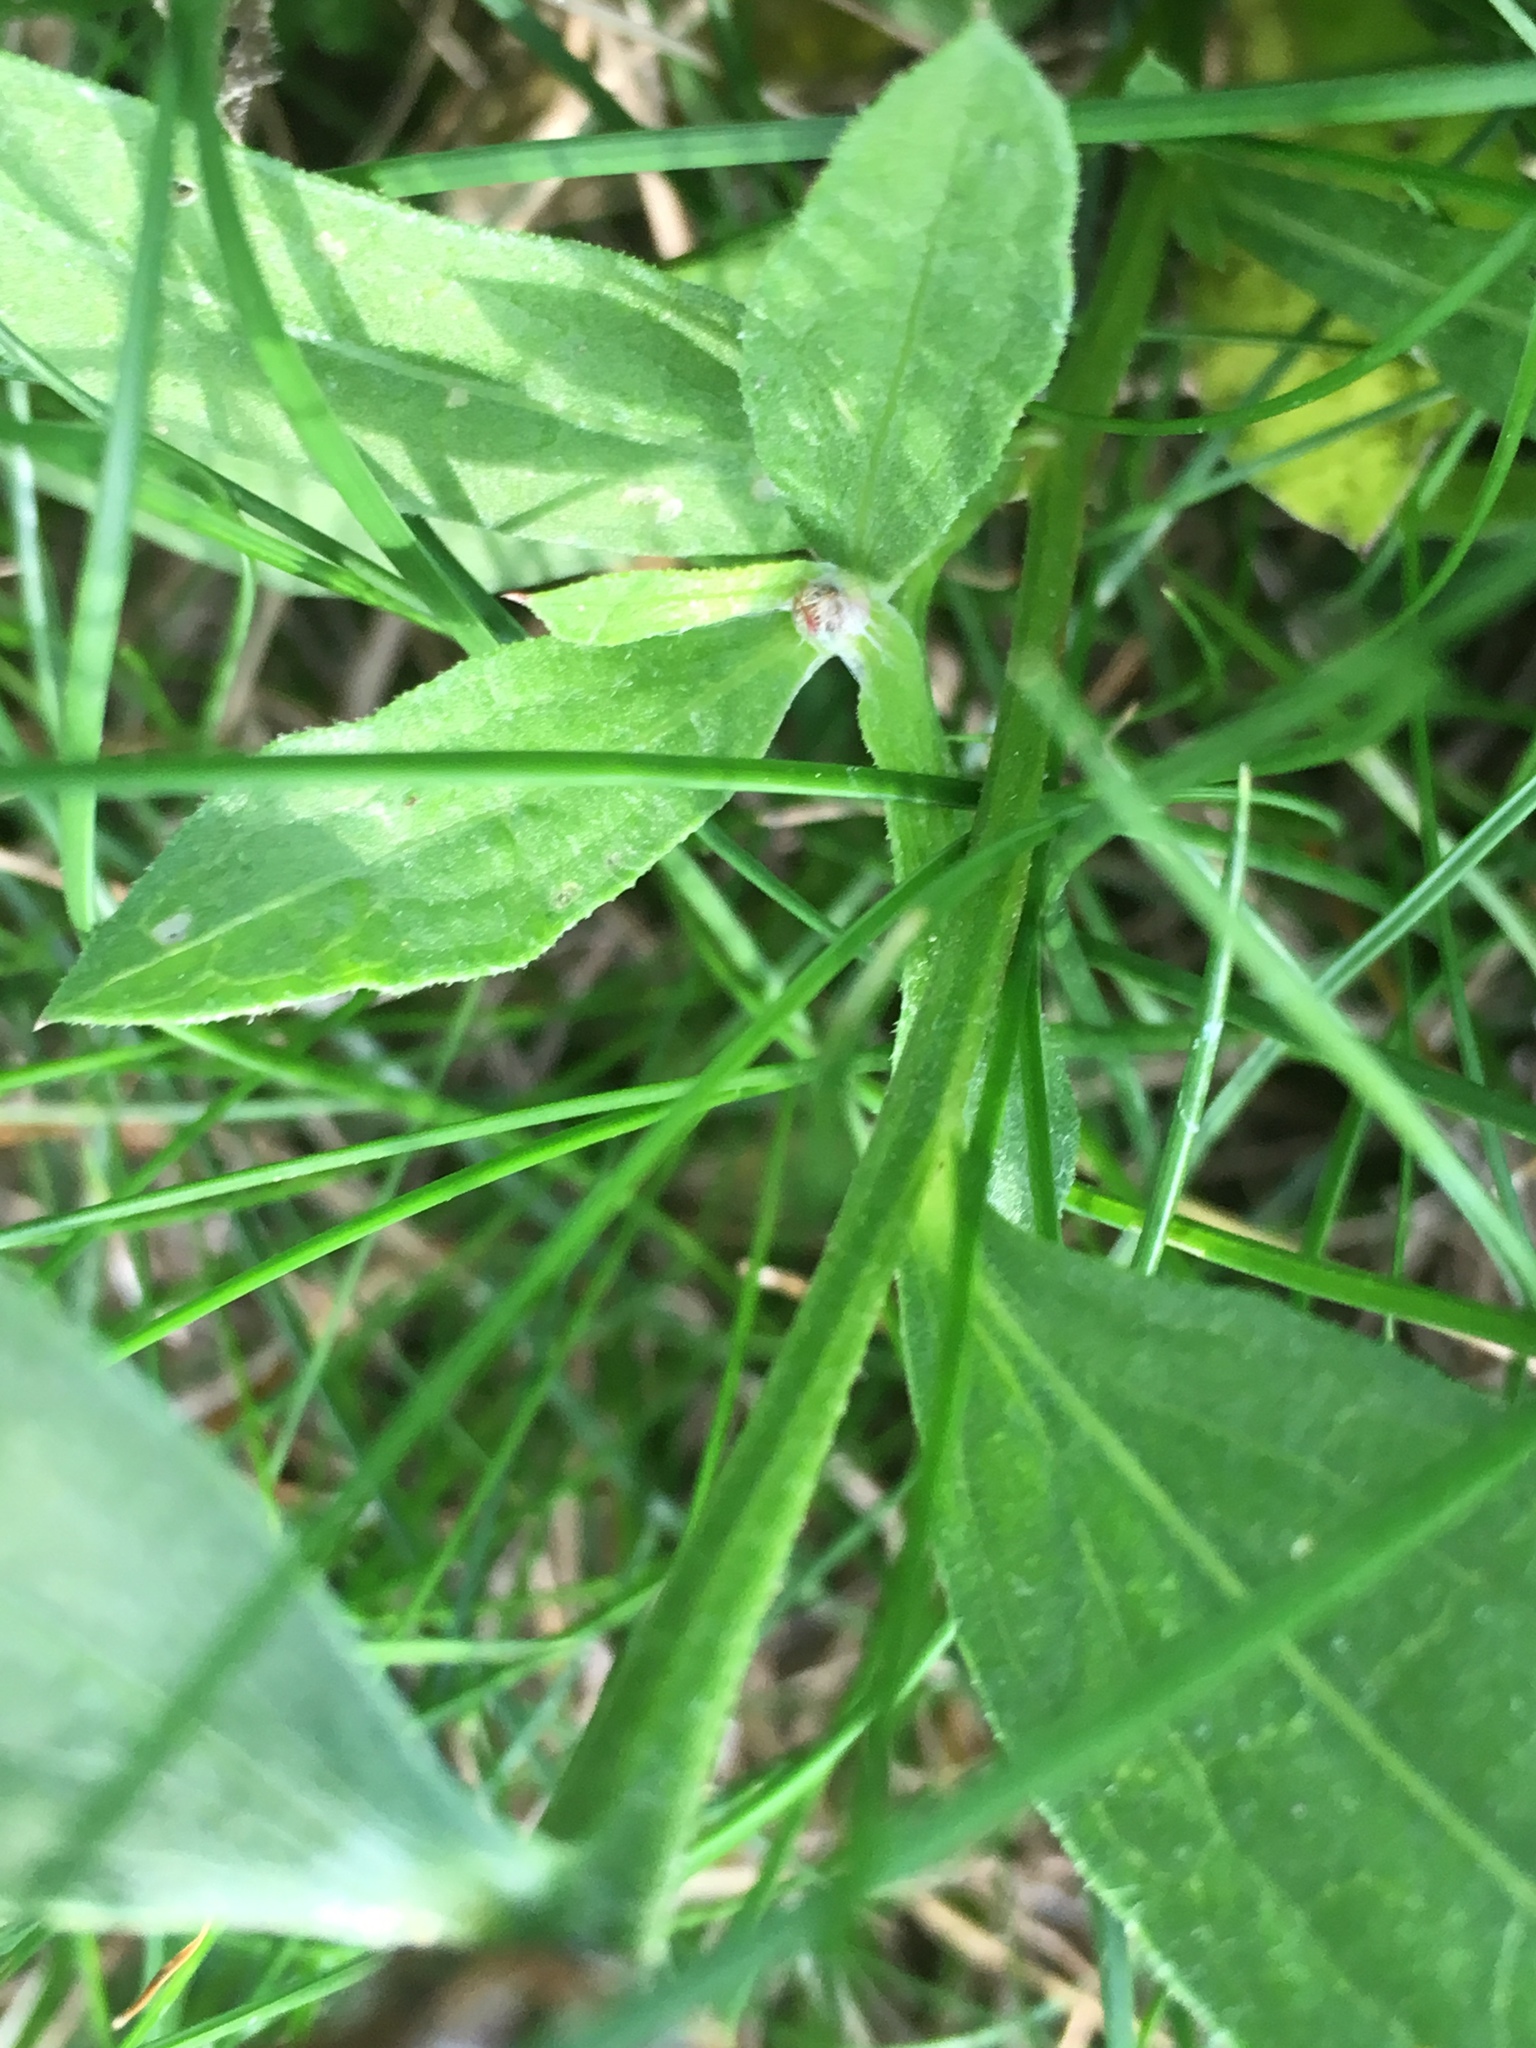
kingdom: Plantae
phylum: Tracheophyta
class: Magnoliopsida
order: Asterales
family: Asteraceae
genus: Centaurea
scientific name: Centaurea jacea
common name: Brown knapweed
